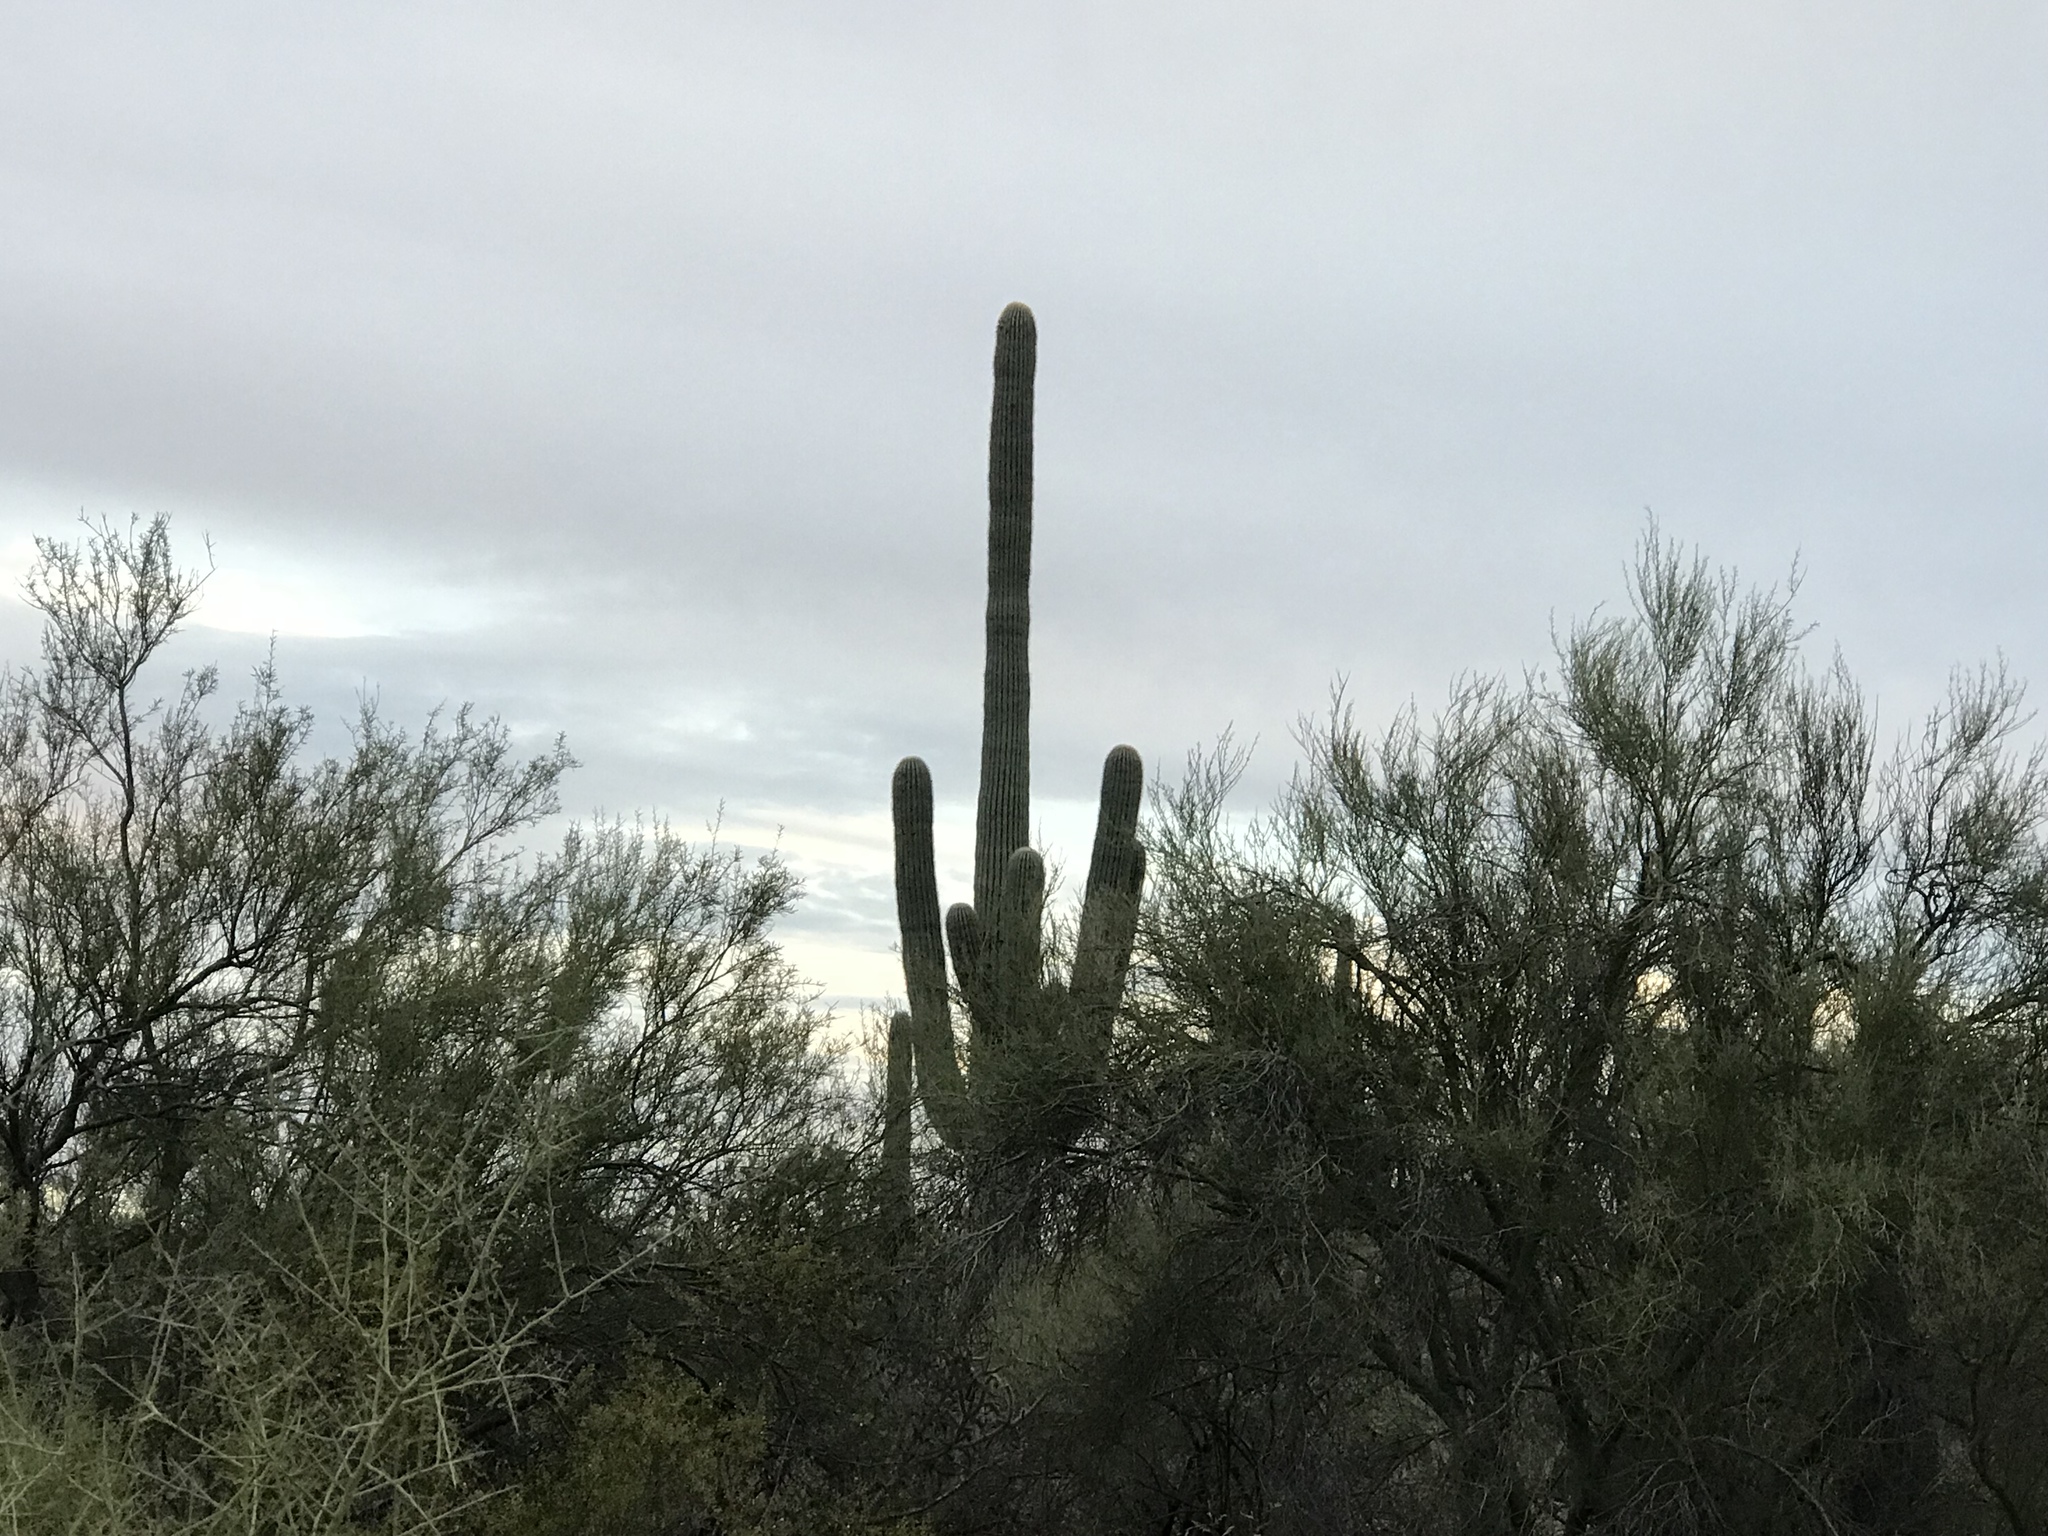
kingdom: Plantae
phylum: Tracheophyta
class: Magnoliopsida
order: Caryophyllales
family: Cactaceae
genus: Carnegiea
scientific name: Carnegiea gigantea
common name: Saguaro
